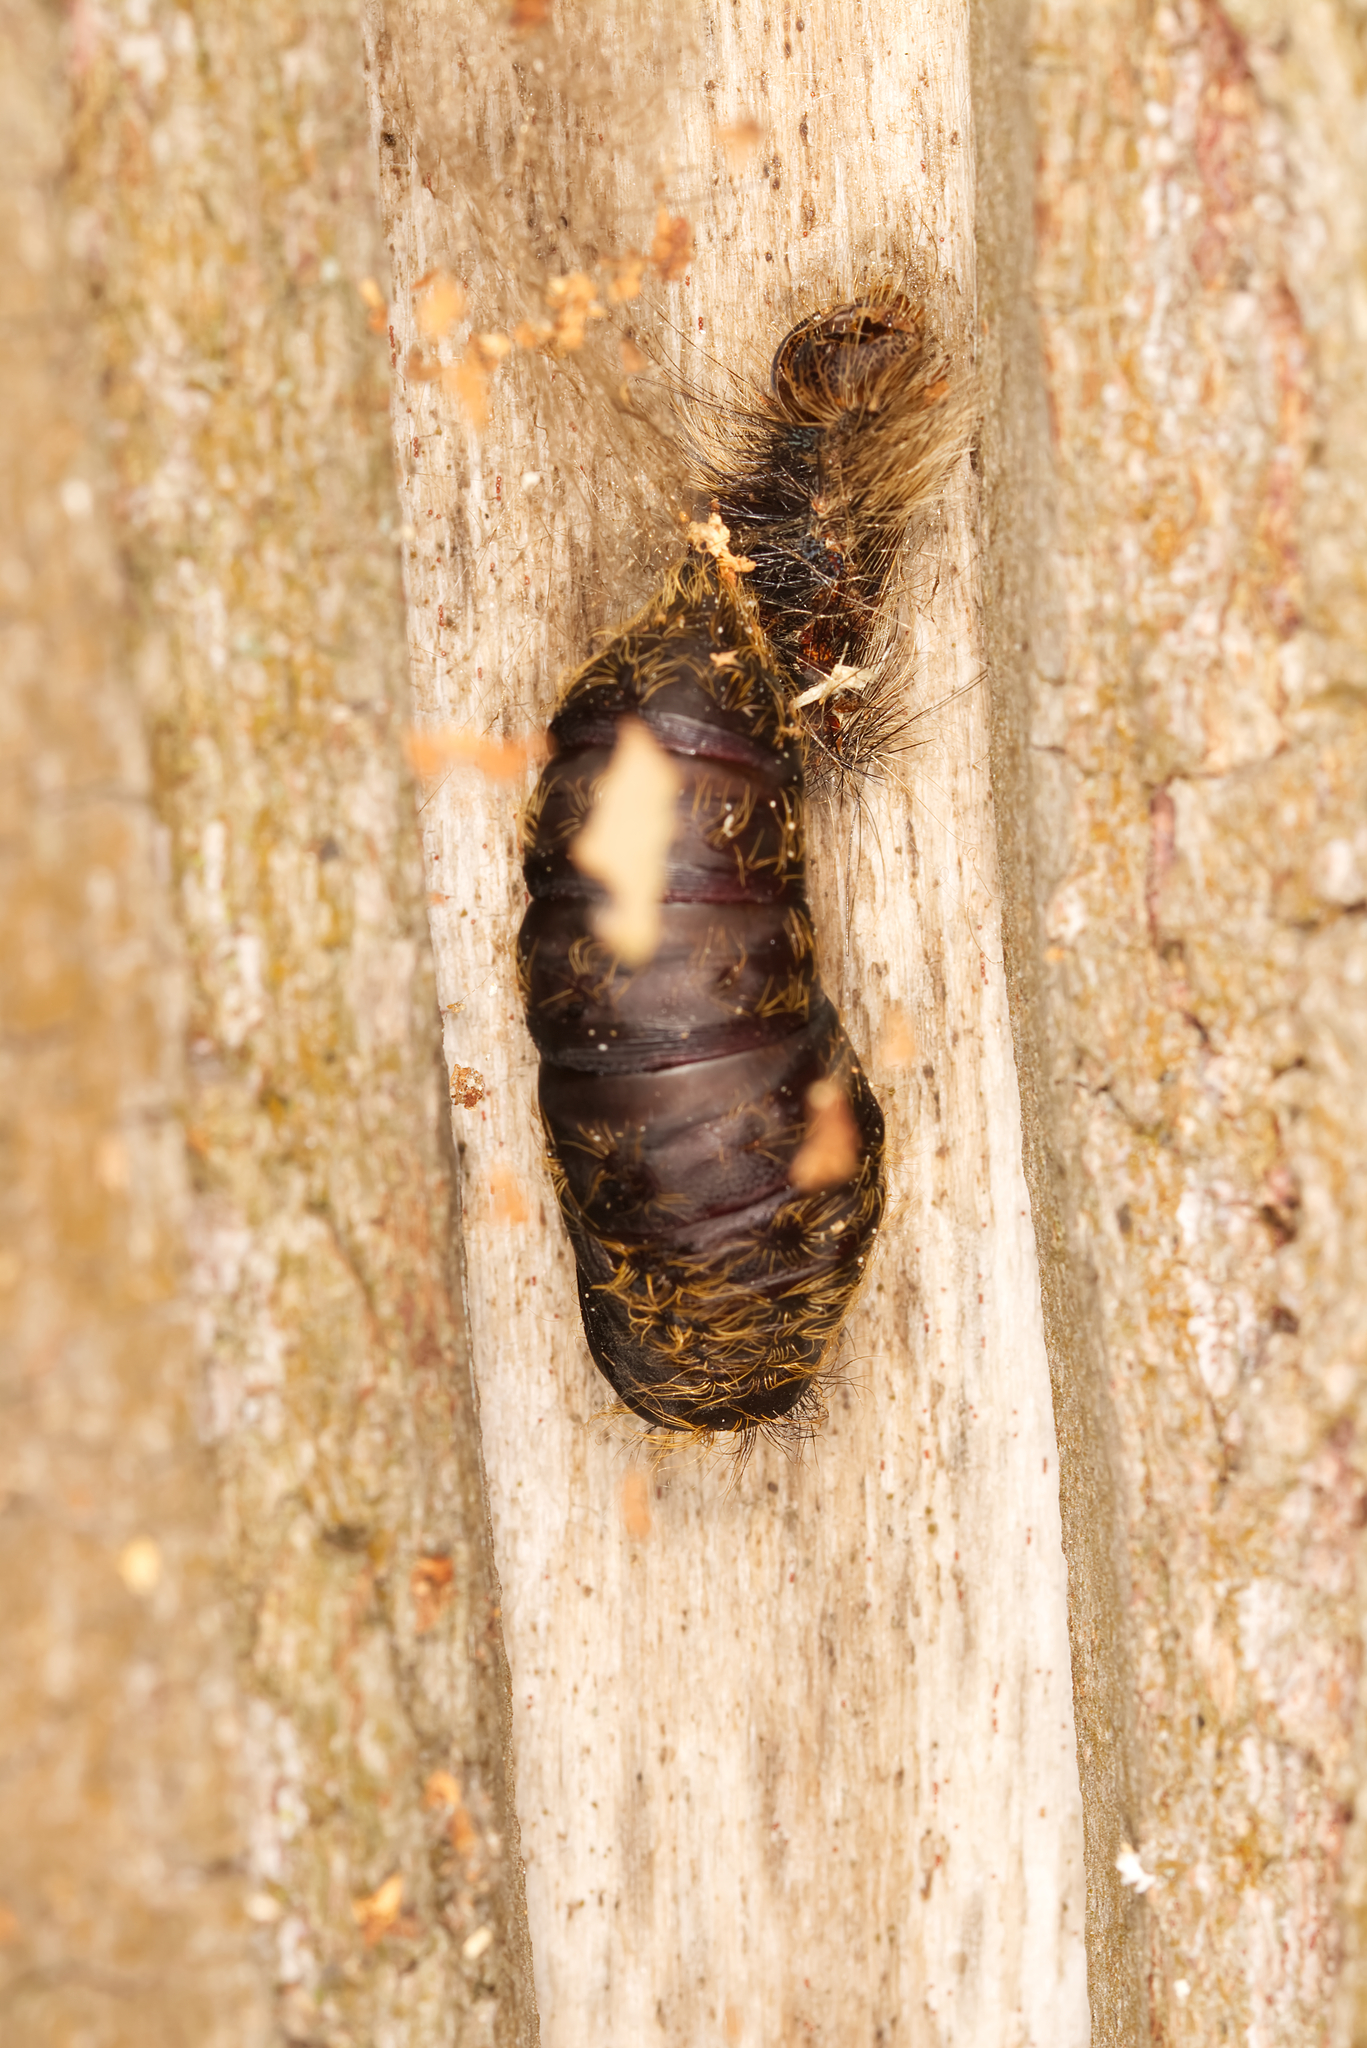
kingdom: Animalia
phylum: Arthropoda
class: Insecta
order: Lepidoptera
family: Erebidae
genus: Lymantria
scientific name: Lymantria dispar
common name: Gypsy moth
